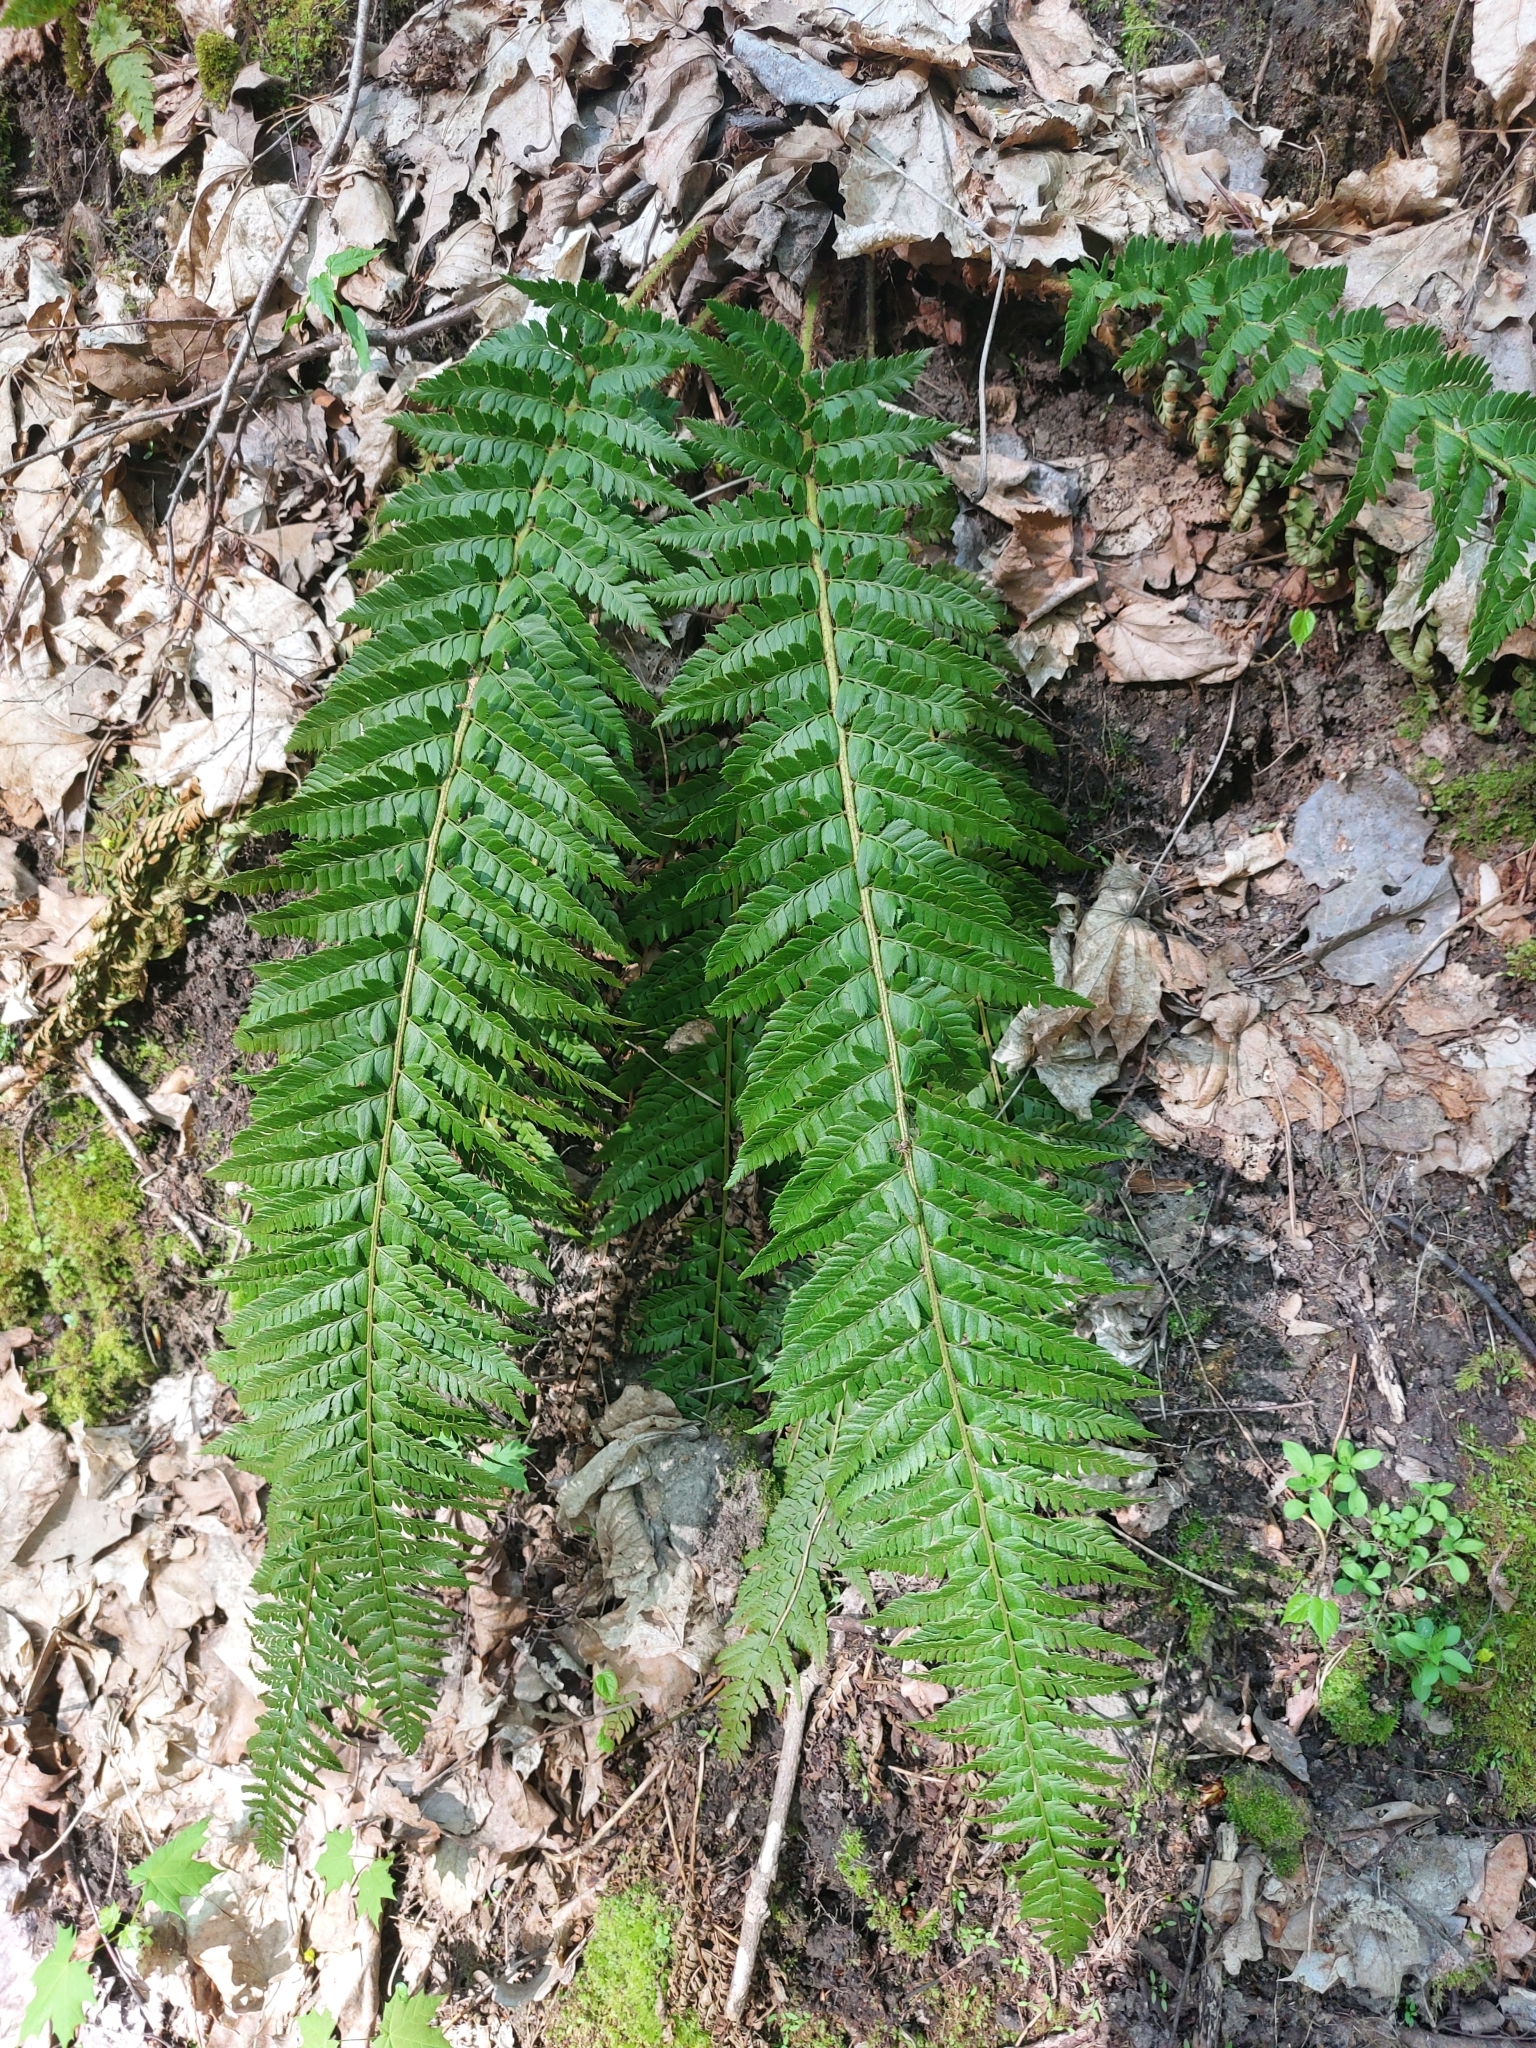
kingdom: Plantae
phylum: Tracheophyta
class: Polypodiopsida
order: Polypodiales
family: Dryopteridaceae
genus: Polystichum
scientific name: Polystichum aculeatum
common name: Hard shield-fern
